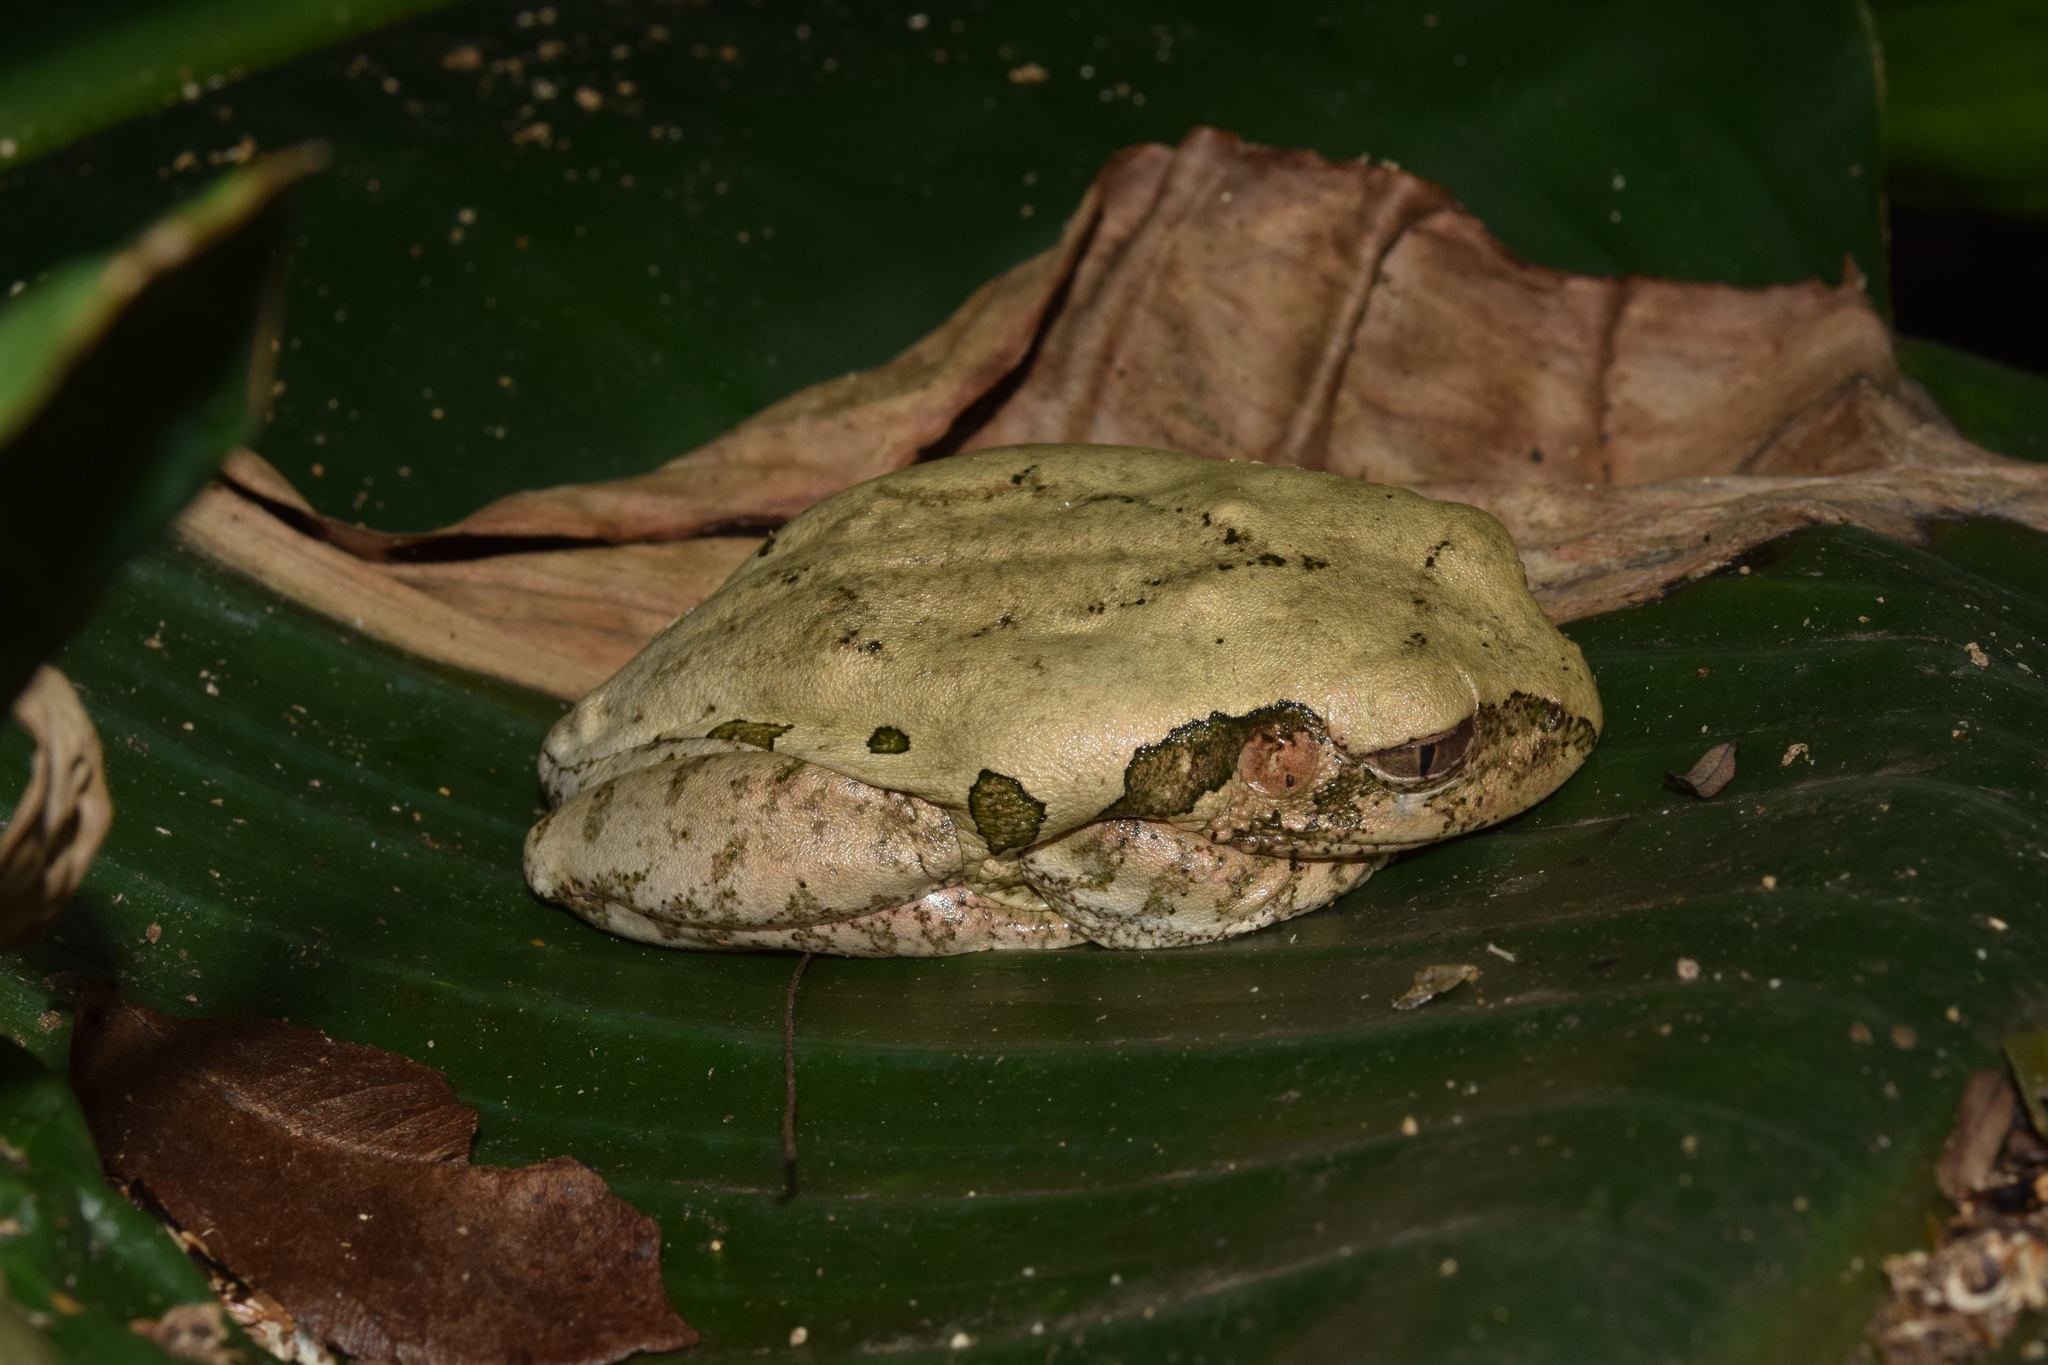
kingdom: Animalia
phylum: Chordata
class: Amphibia
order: Anura
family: Arthroleptidae
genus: Leptopelis
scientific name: Leptopelis natalensis
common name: Natal tree frog
